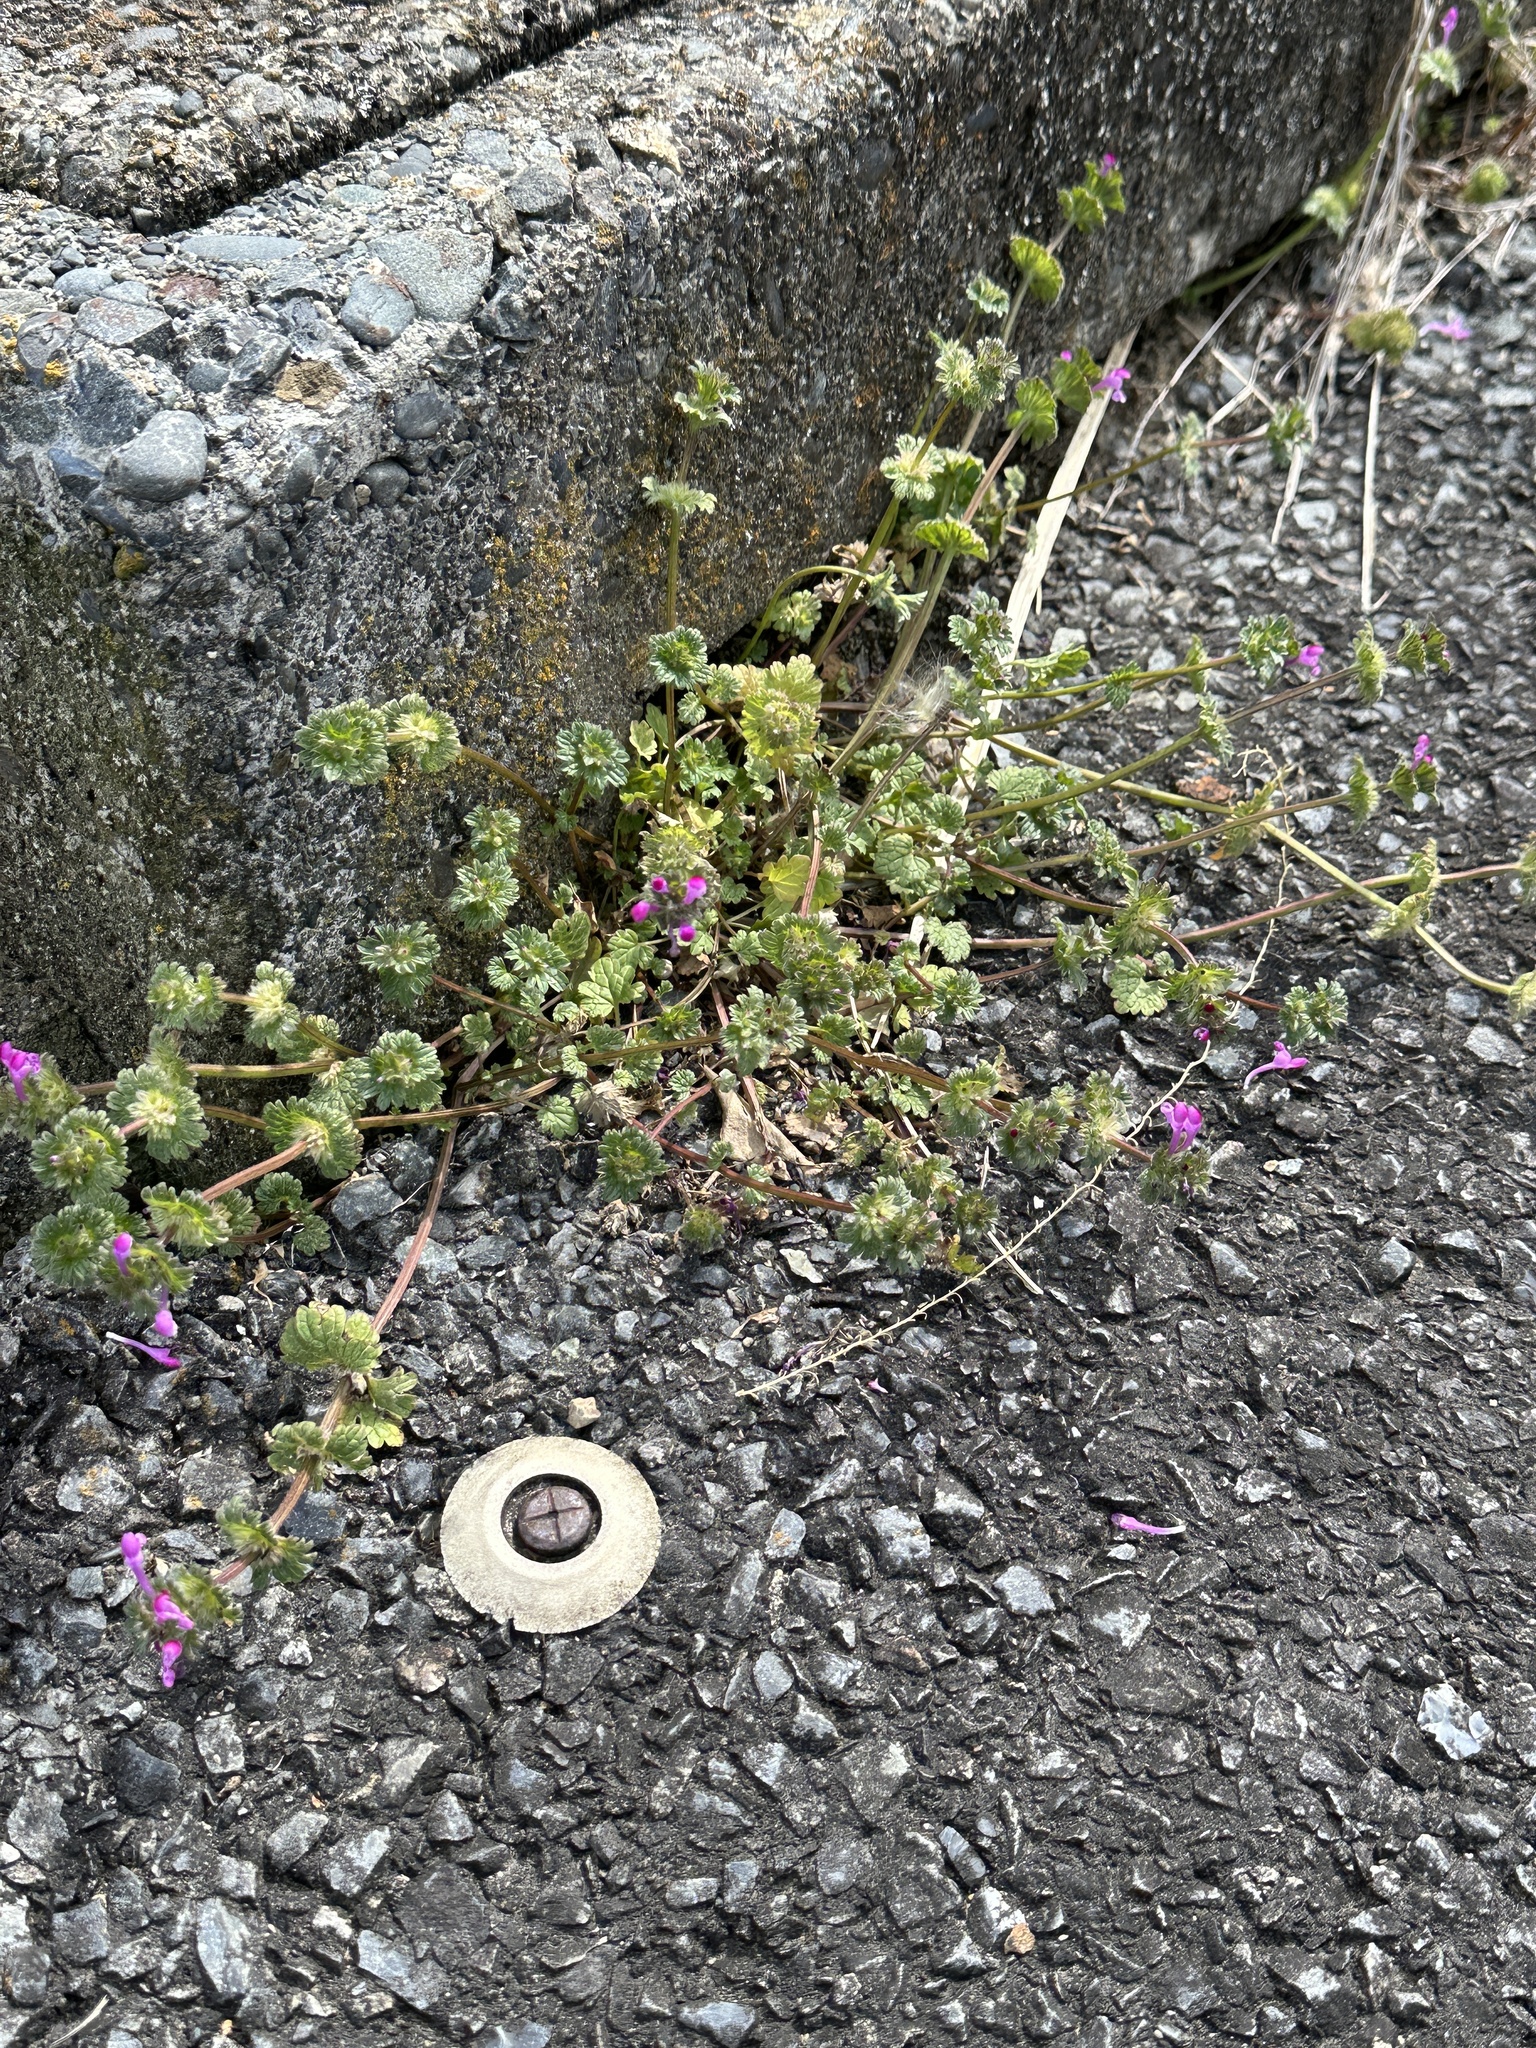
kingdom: Plantae
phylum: Tracheophyta
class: Magnoliopsida
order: Lamiales
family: Lamiaceae
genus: Lamium
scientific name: Lamium amplexicaule
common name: Henbit dead-nettle
